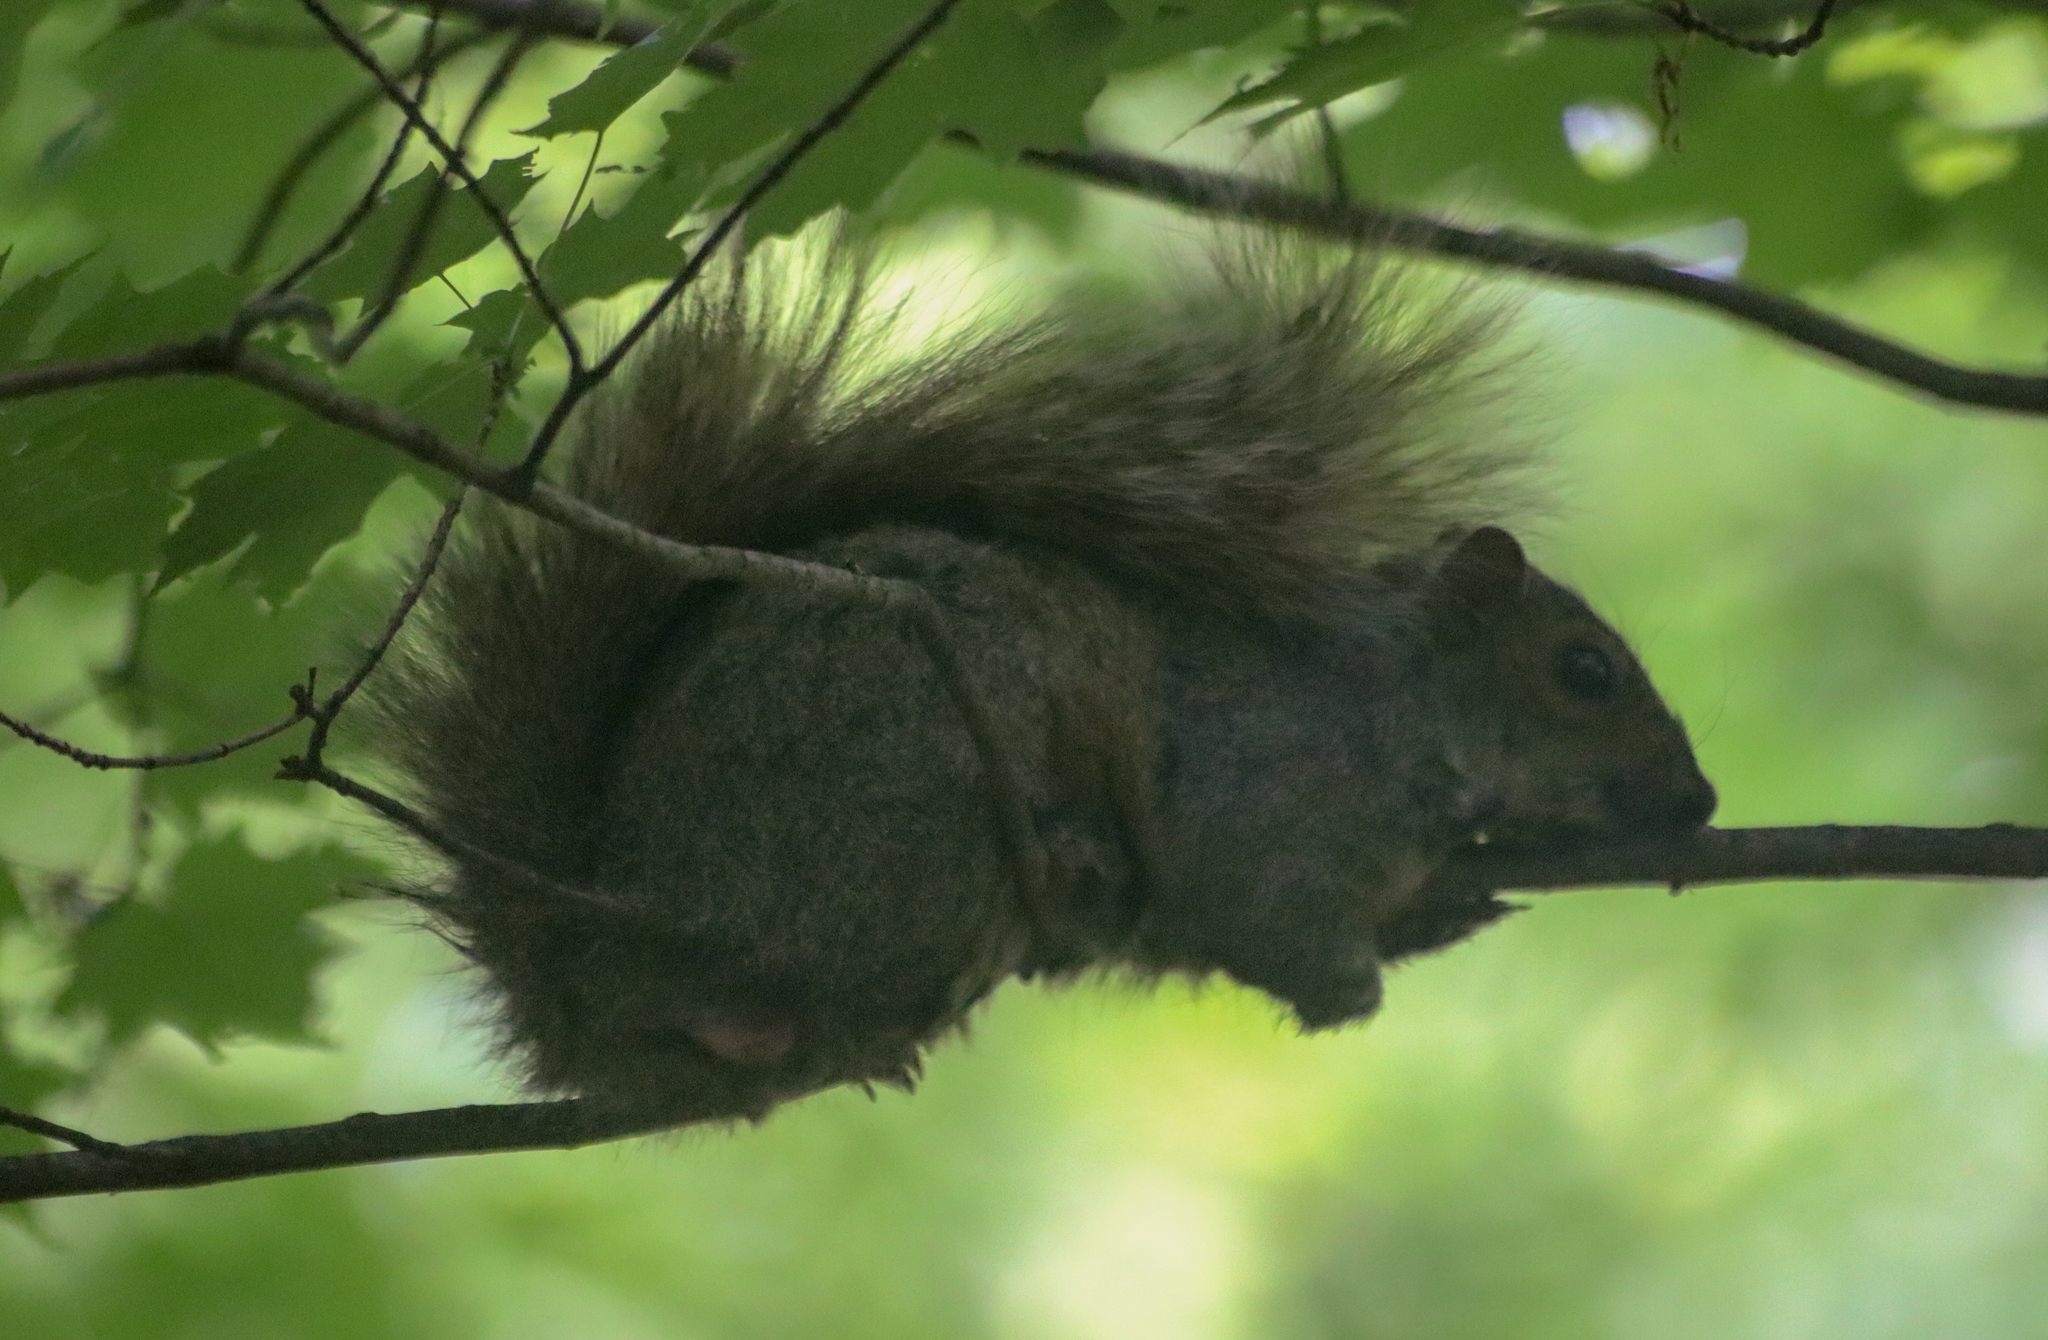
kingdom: Animalia
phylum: Chordata
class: Mammalia
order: Rodentia
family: Sciuridae
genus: Sciurus
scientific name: Sciurus carolinensis
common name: Eastern gray squirrel
